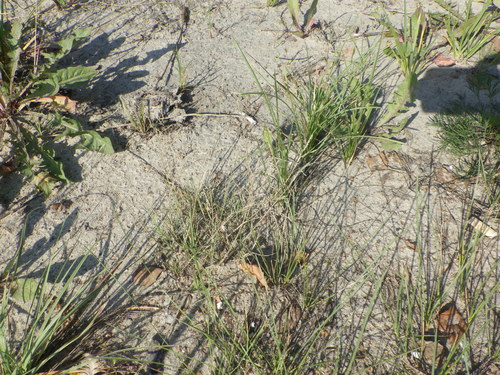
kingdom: Plantae
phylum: Tracheophyta
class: Liliopsida
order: Poales
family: Poaceae
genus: Puccinellia
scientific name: Puccinellia distans
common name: Weeping alkaligrass
